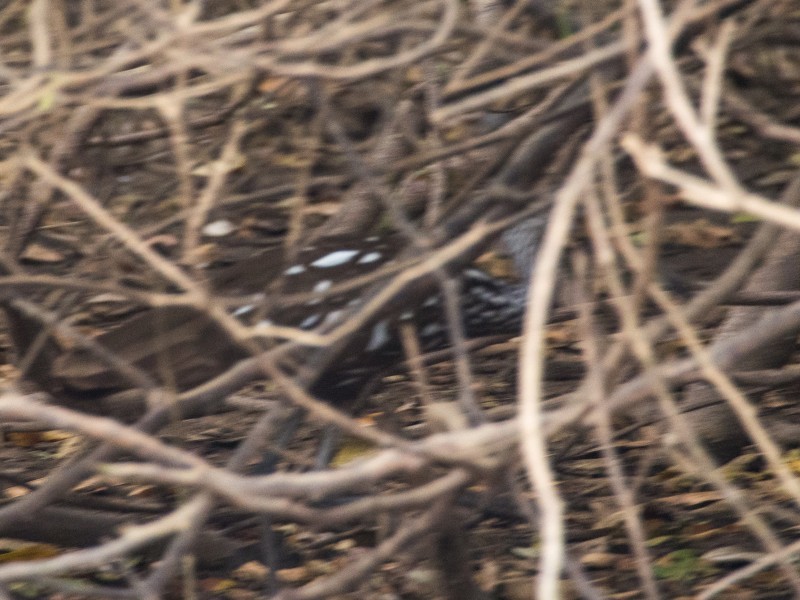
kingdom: Animalia
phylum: Chordata
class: Aves
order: Gruiformes
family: Aramidae
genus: Aramus
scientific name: Aramus guarauna
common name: Limpkin
